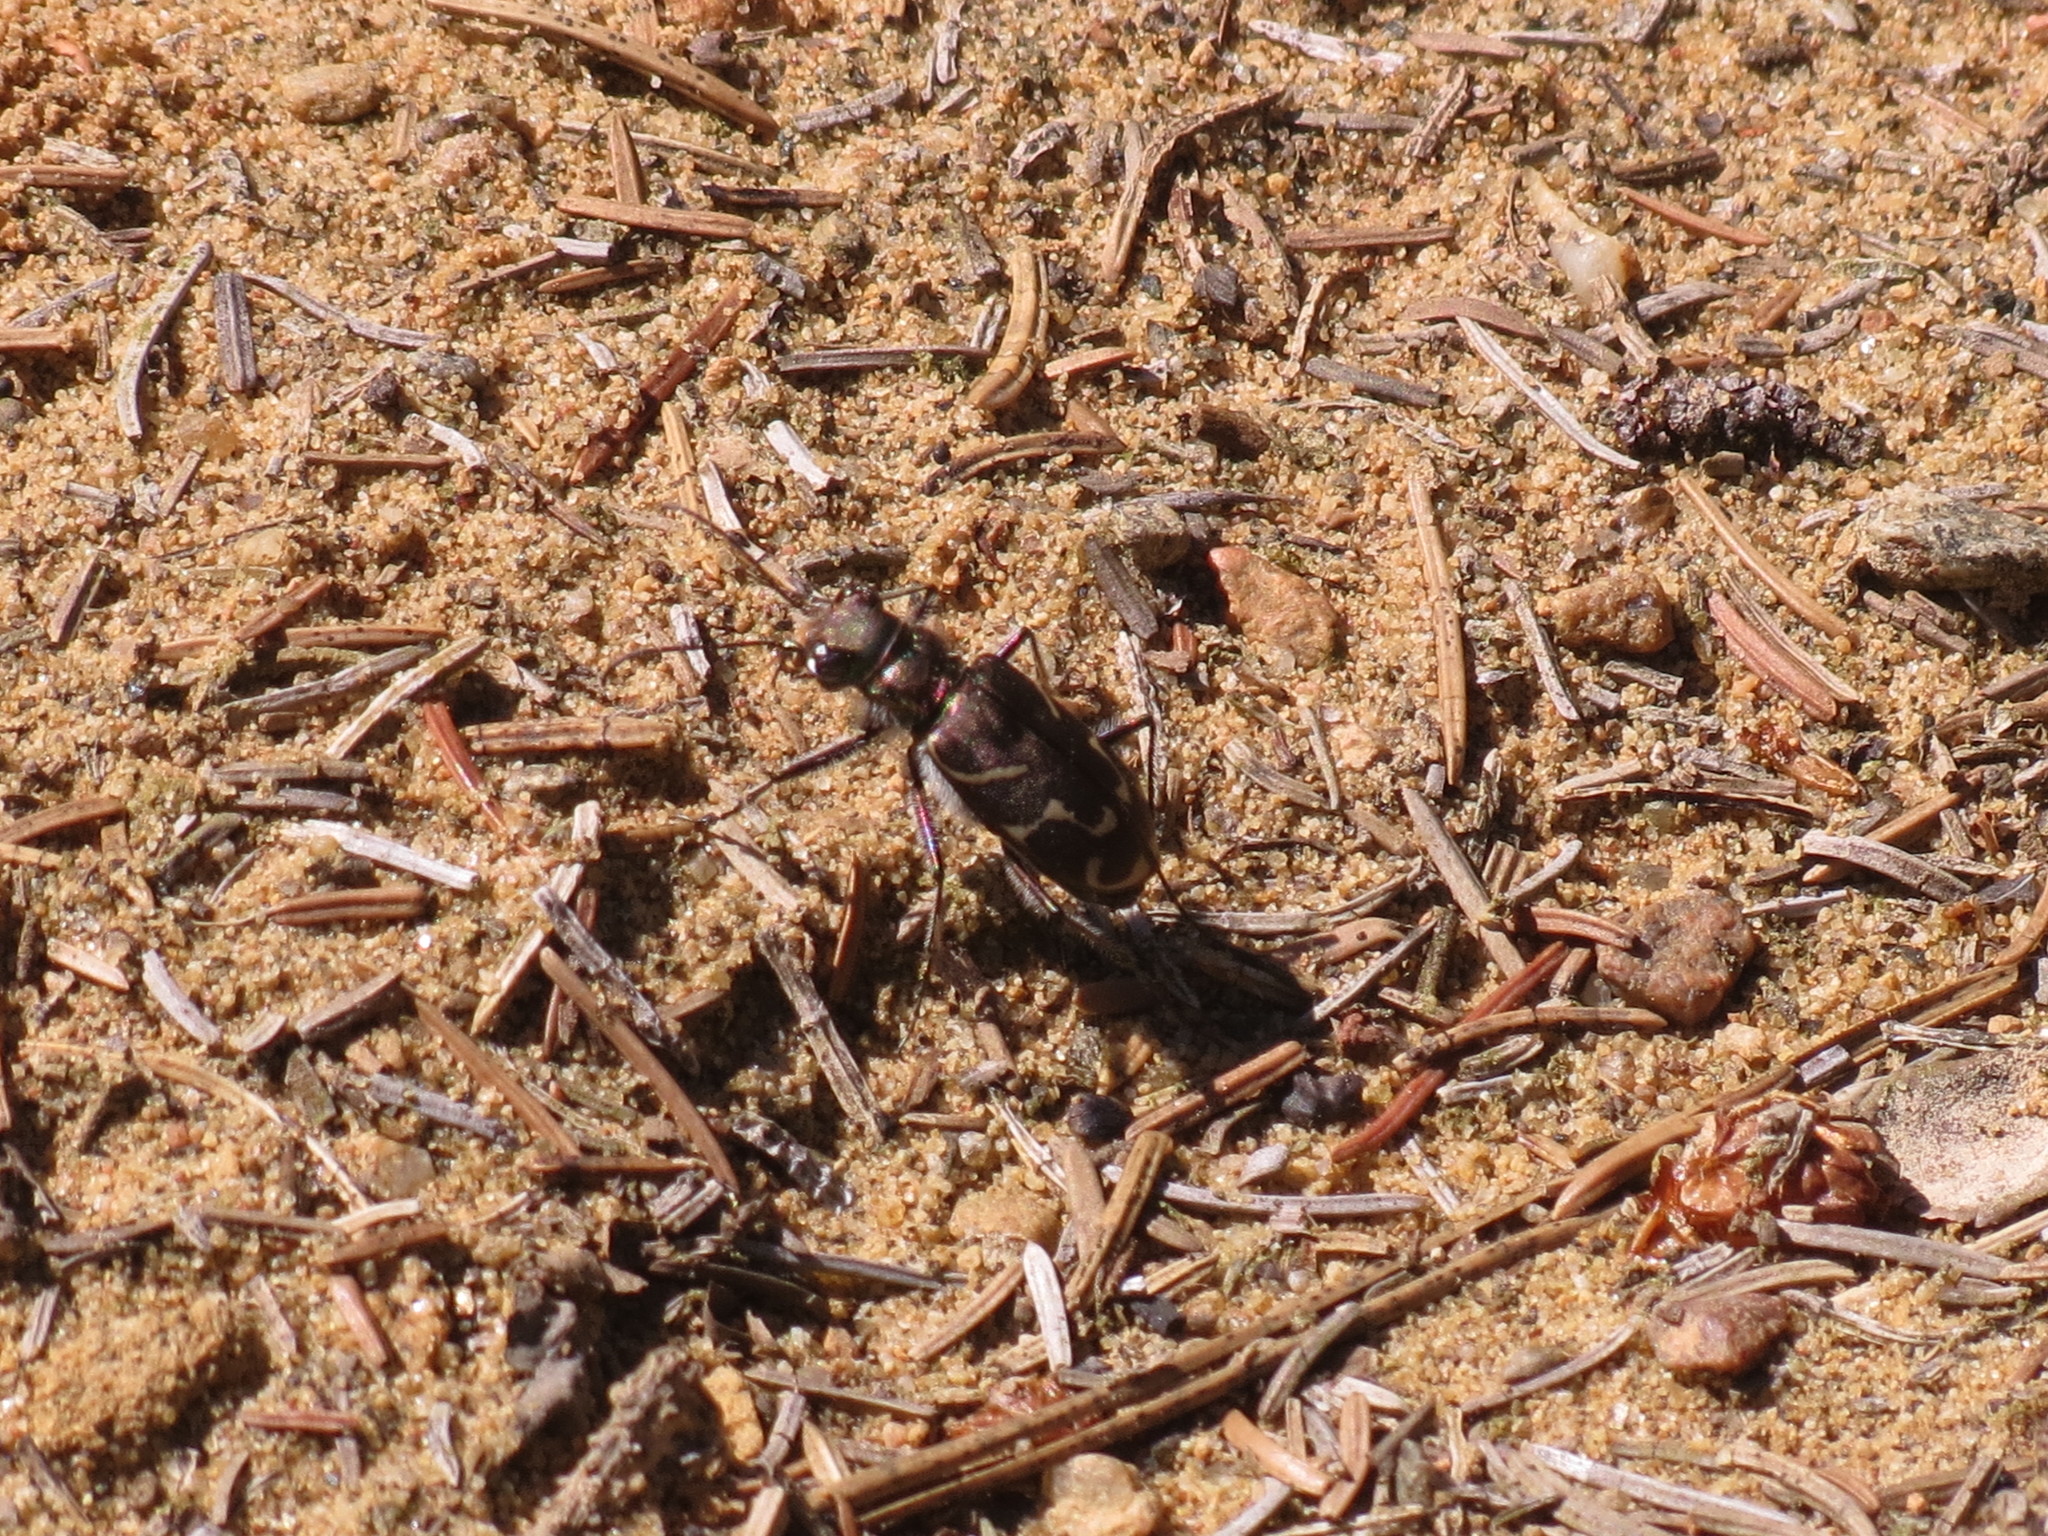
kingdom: Animalia
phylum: Arthropoda
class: Insecta
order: Coleoptera
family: Carabidae
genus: Cicindela
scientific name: Cicindela tranquebarica
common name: Oblique-lined tiger beetle
